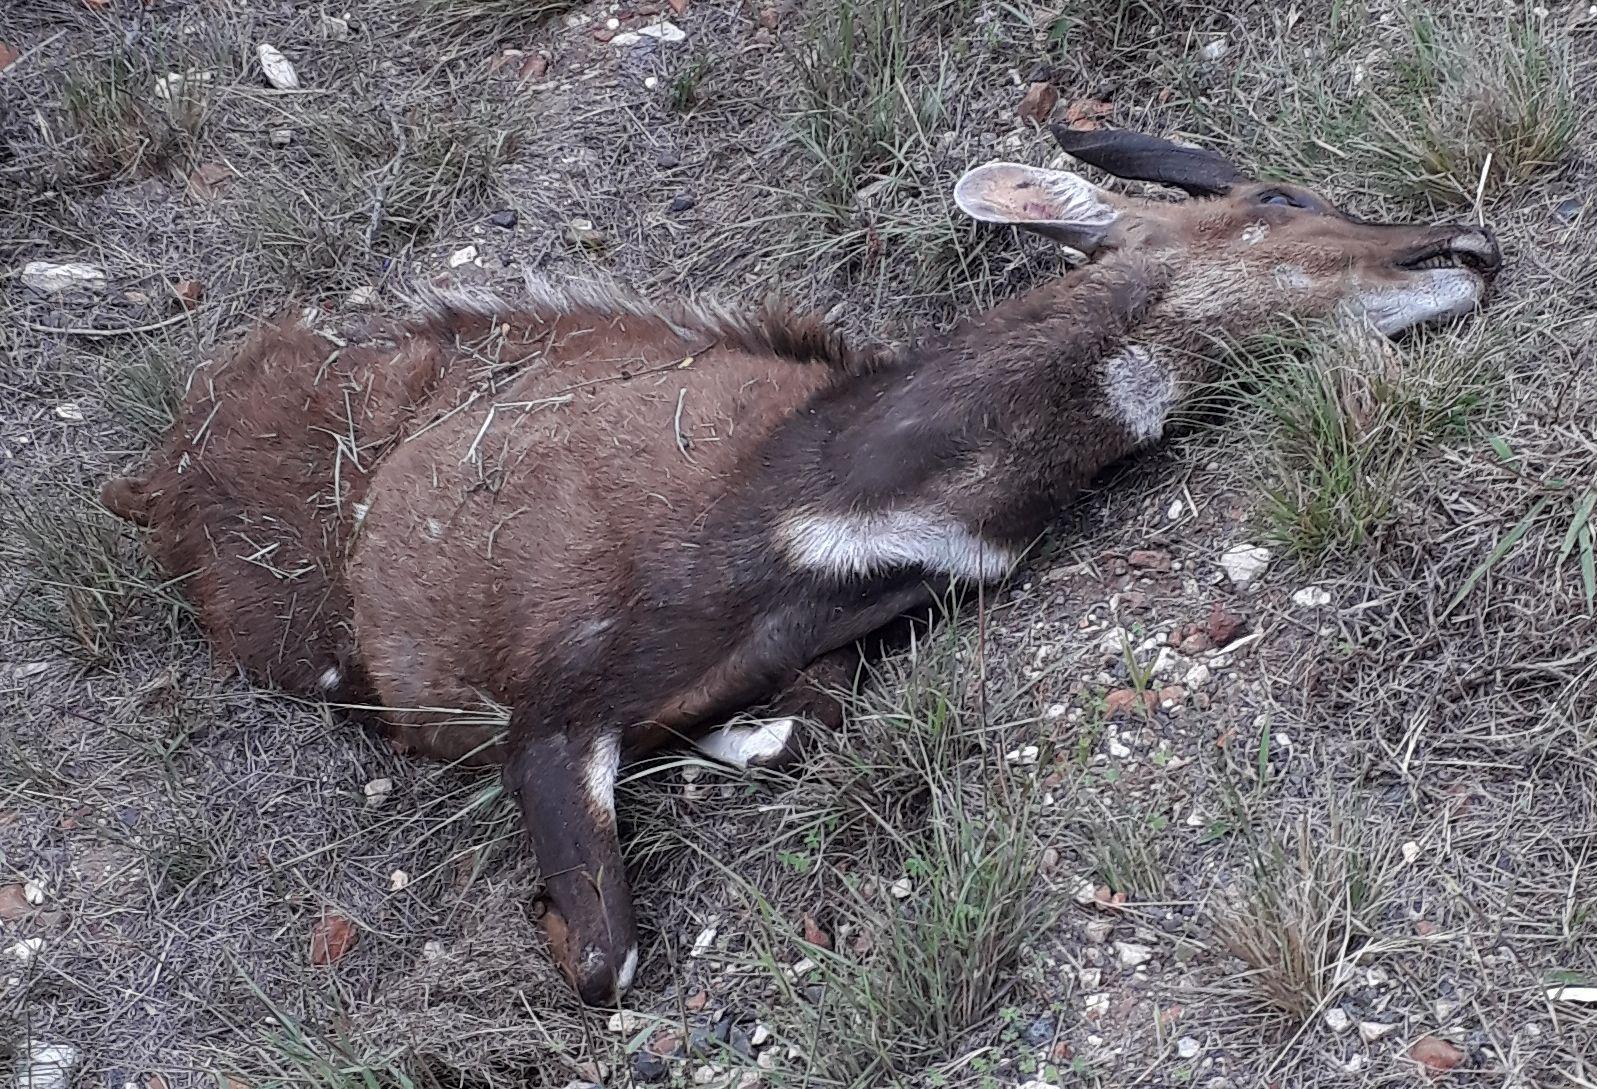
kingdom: Animalia
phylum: Chordata
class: Mammalia
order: Artiodactyla
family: Bovidae
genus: Tragelaphus
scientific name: Tragelaphus scriptus
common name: Bushbuck
